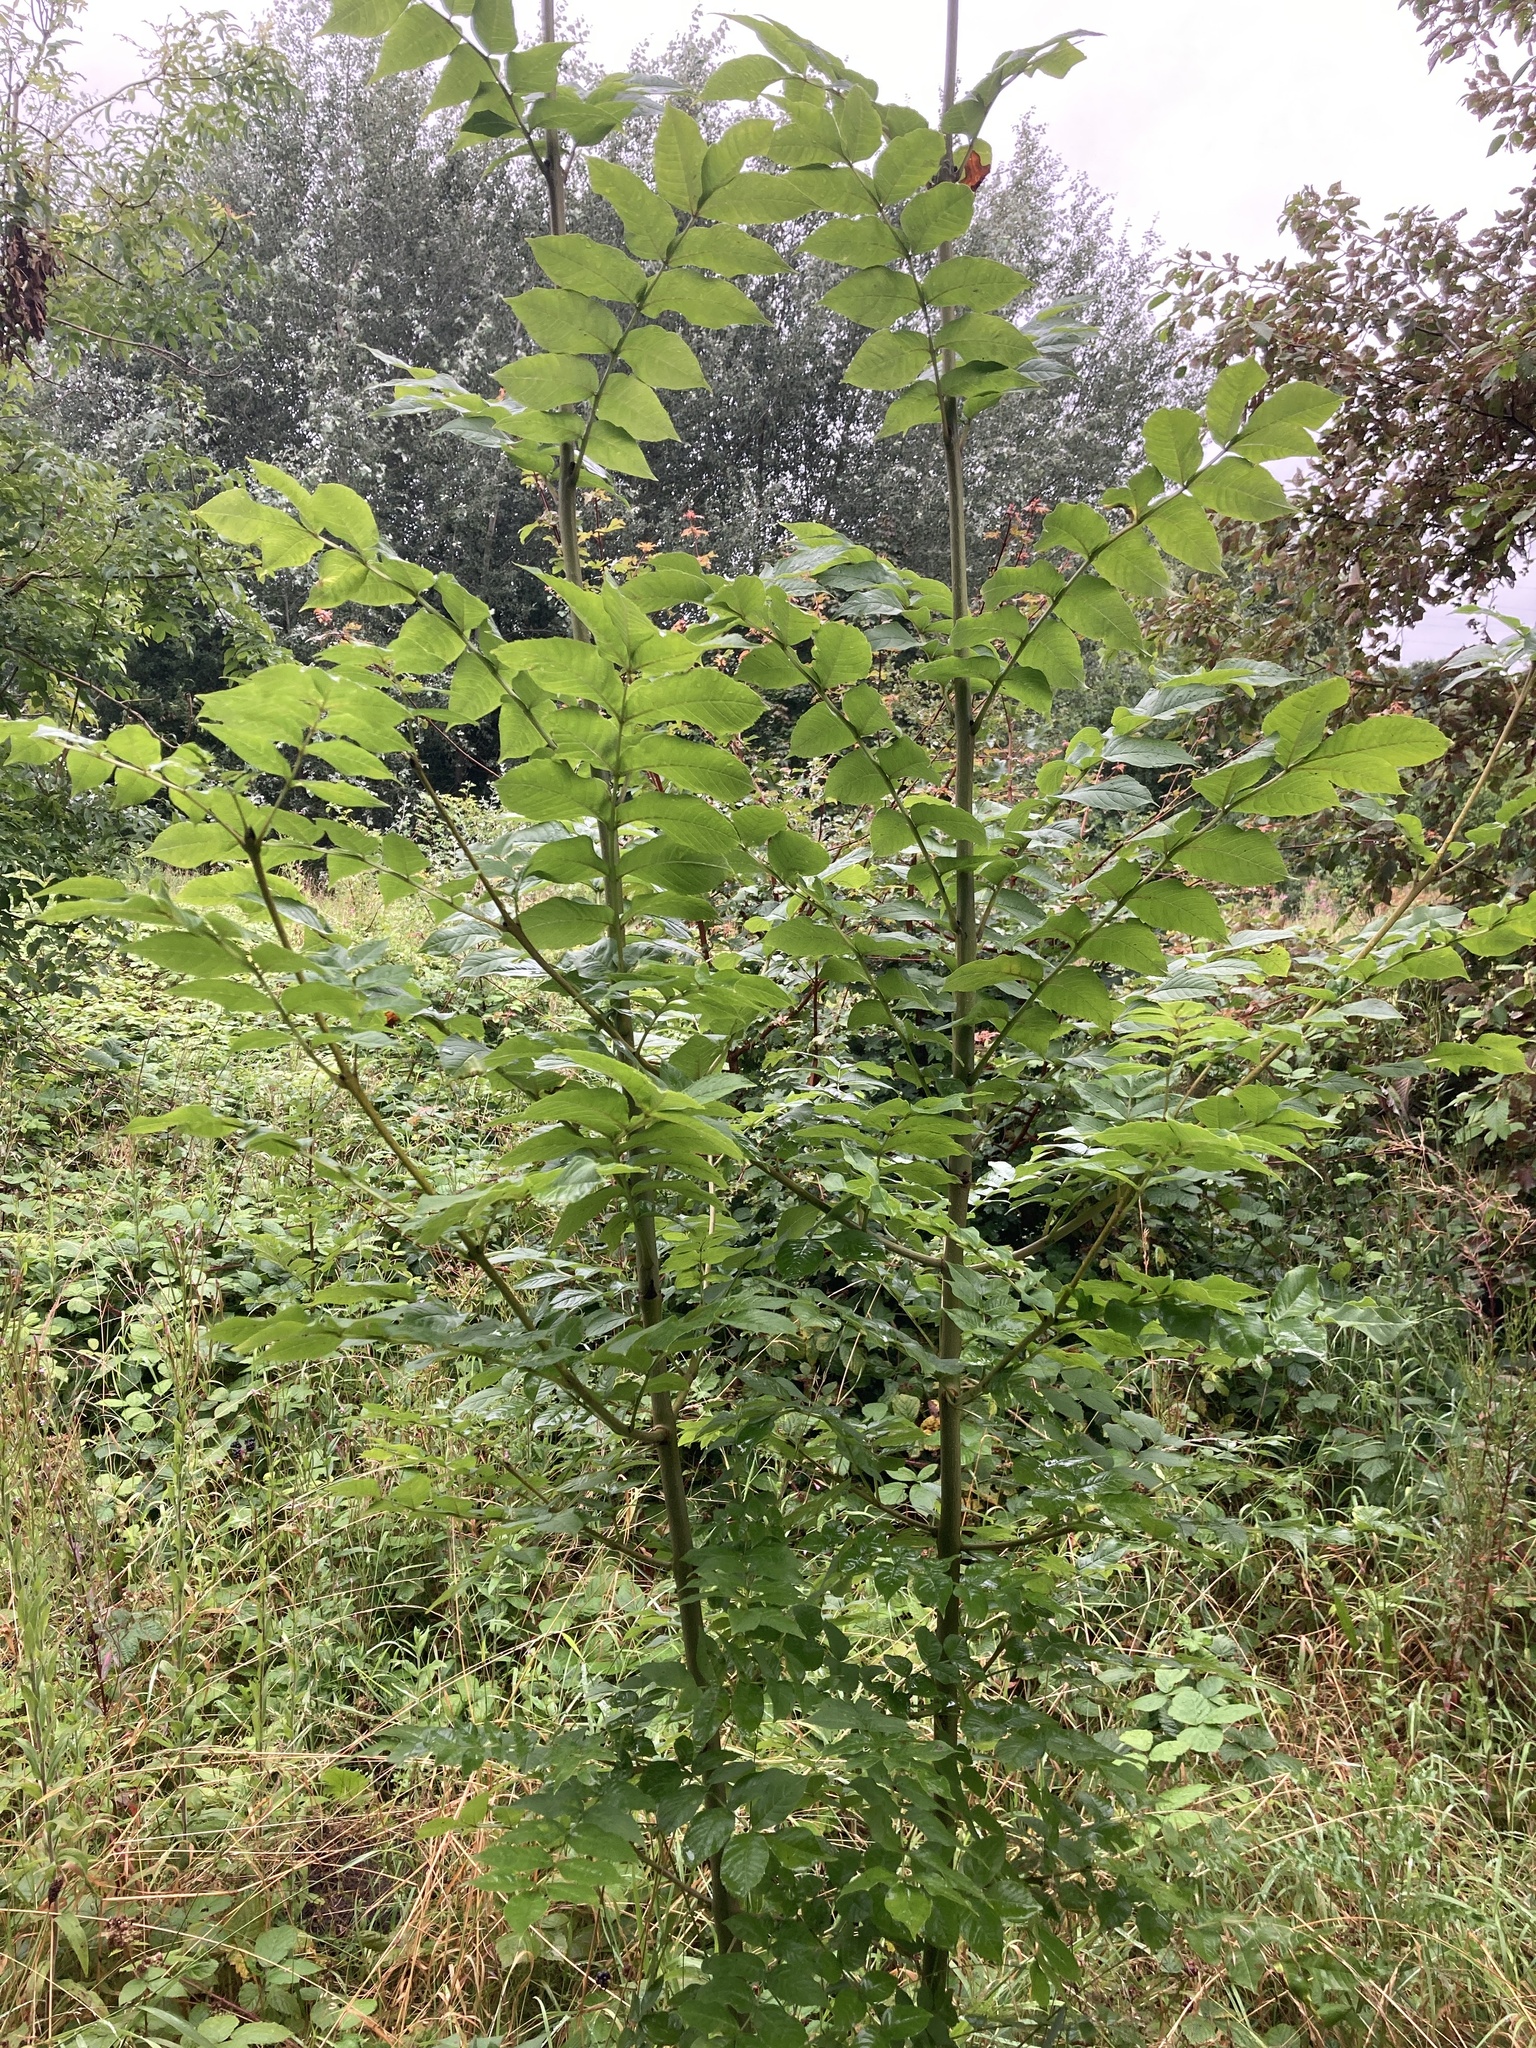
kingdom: Plantae
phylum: Tracheophyta
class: Magnoliopsida
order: Lamiales
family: Oleaceae
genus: Fraxinus
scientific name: Fraxinus excelsior
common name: European ash
